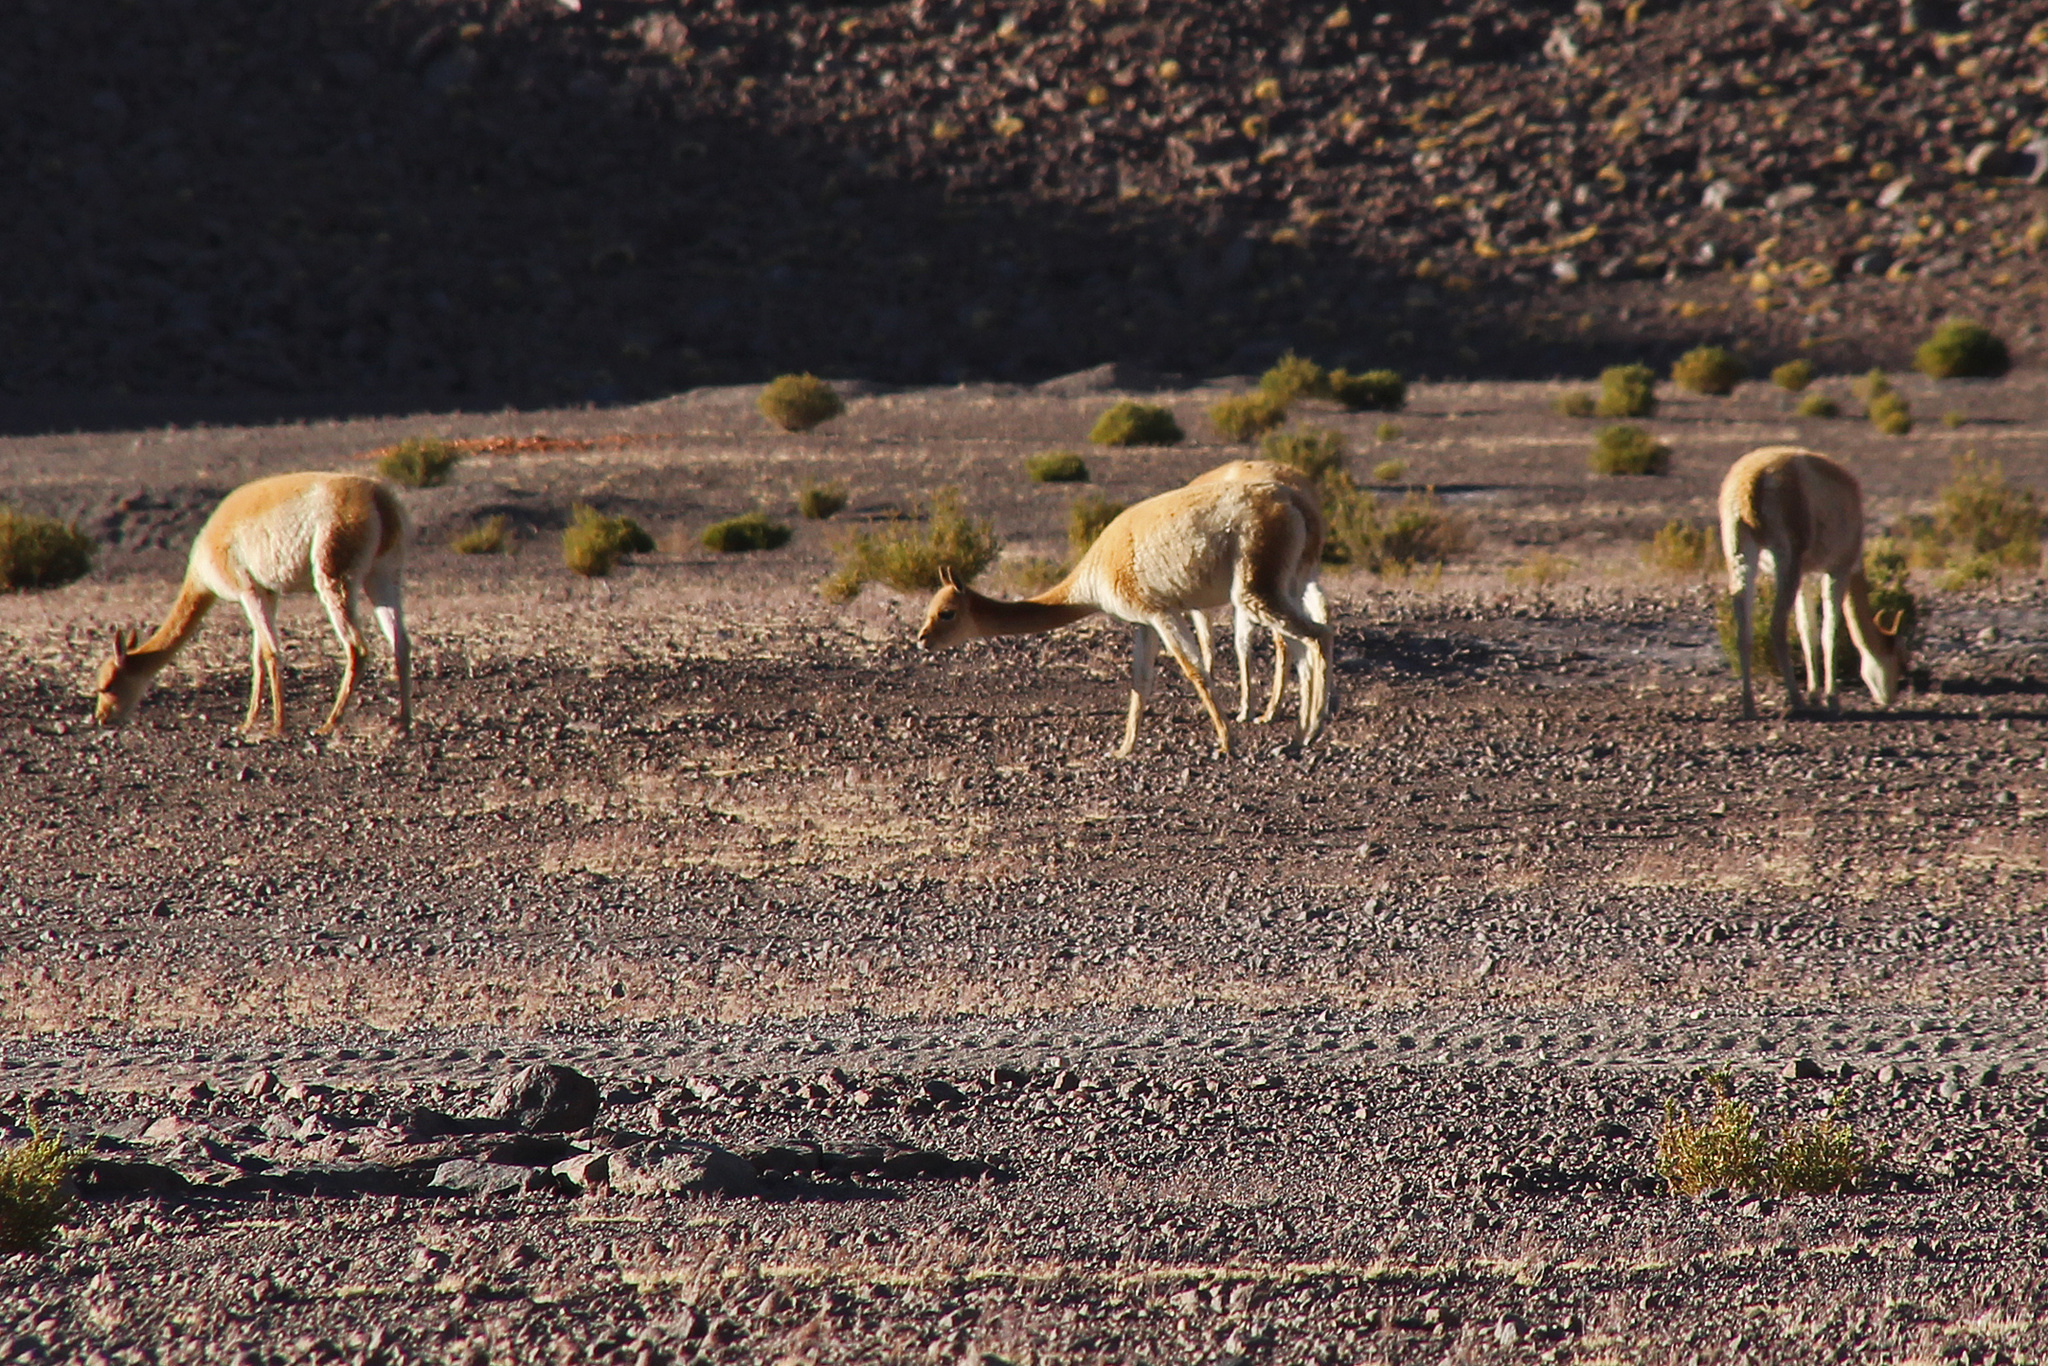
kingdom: Animalia
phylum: Chordata
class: Mammalia
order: Artiodactyla
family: Camelidae
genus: Vicugna
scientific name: Vicugna vicugna
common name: Vicugna
